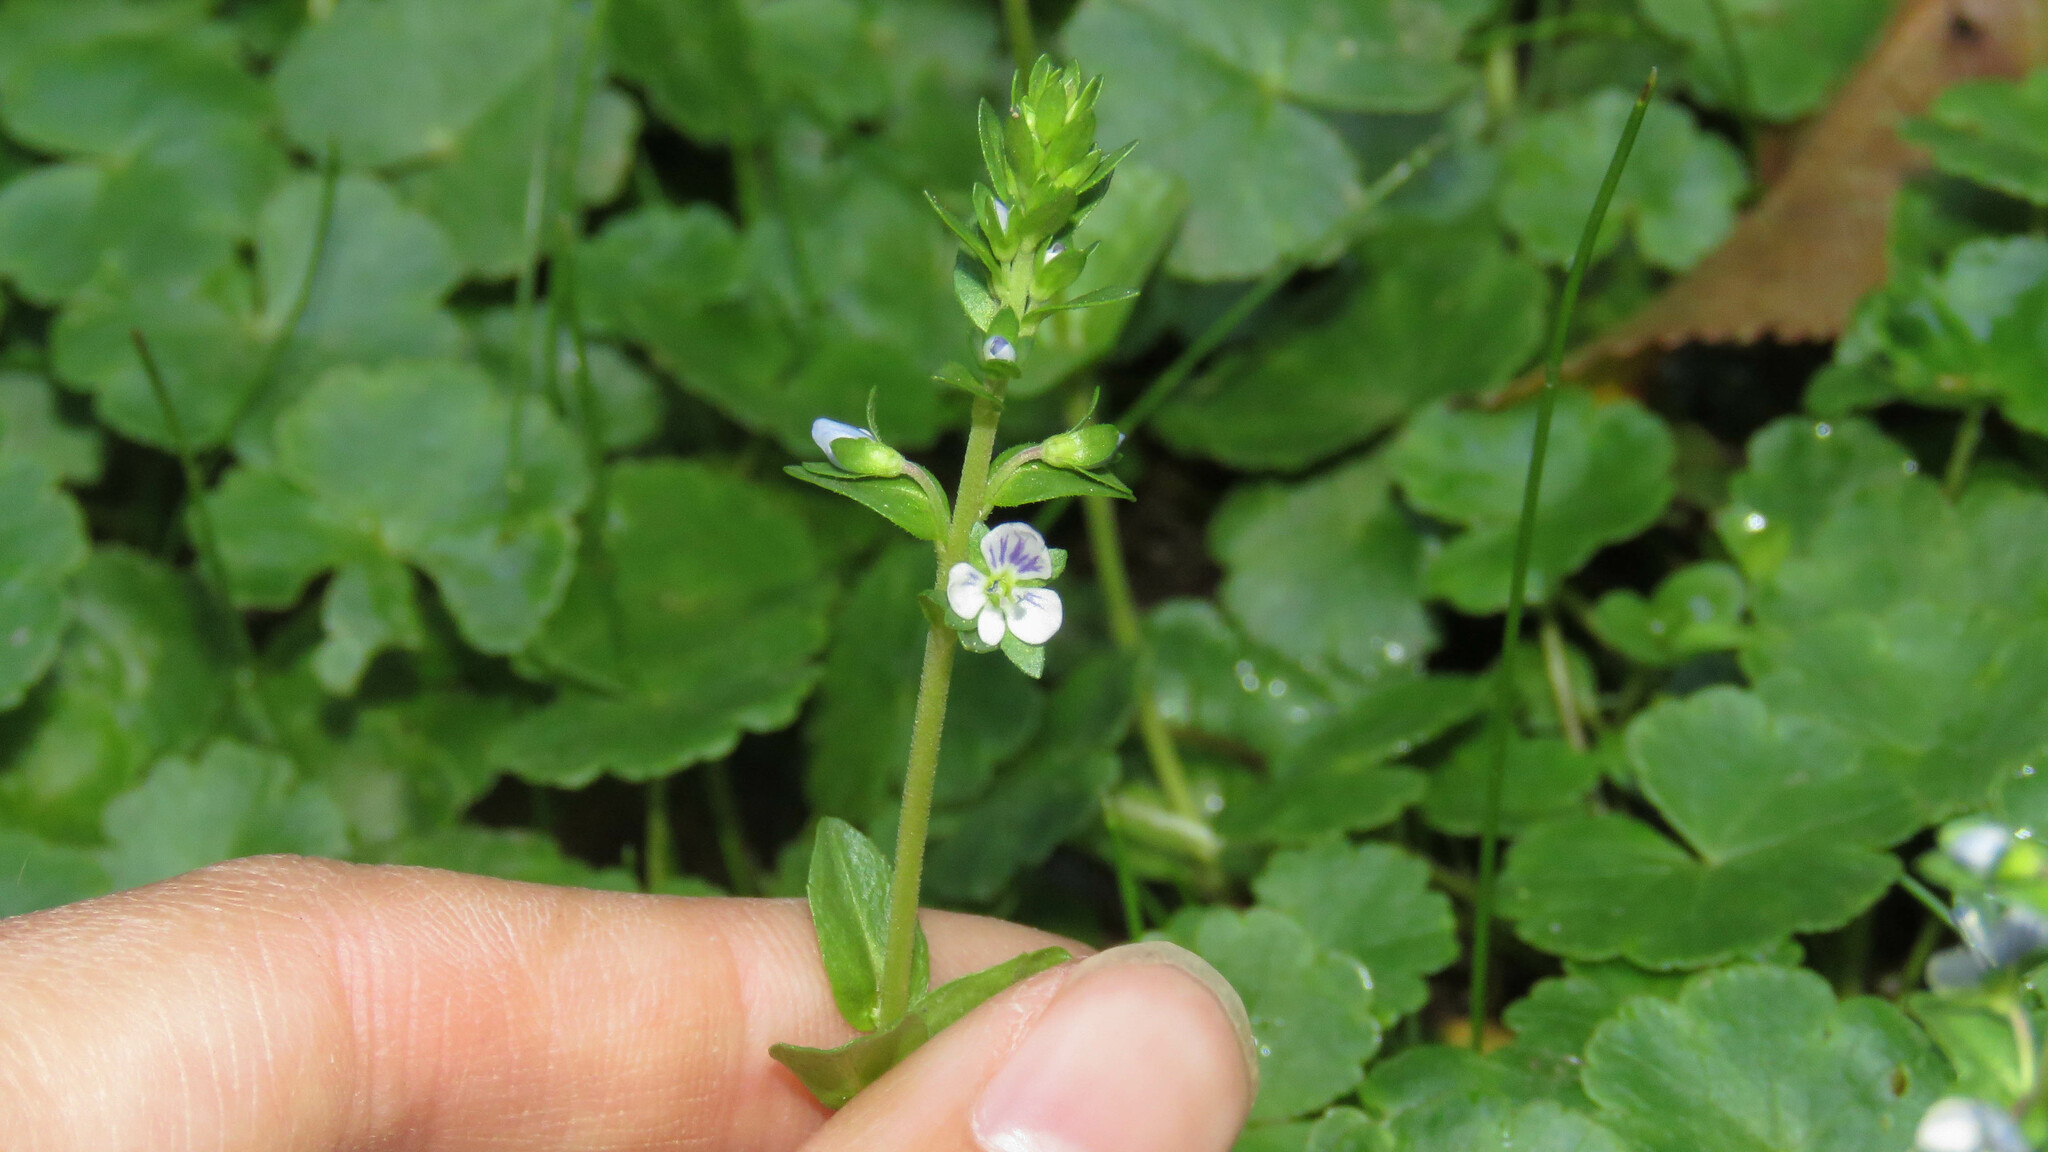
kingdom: Plantae
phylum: Tracheophyta
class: Magnoliopsida
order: Lamiales
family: Plantaginaceae
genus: Veronica
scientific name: Veronica serpyllifolia
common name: Thyme-leaved speedwell
